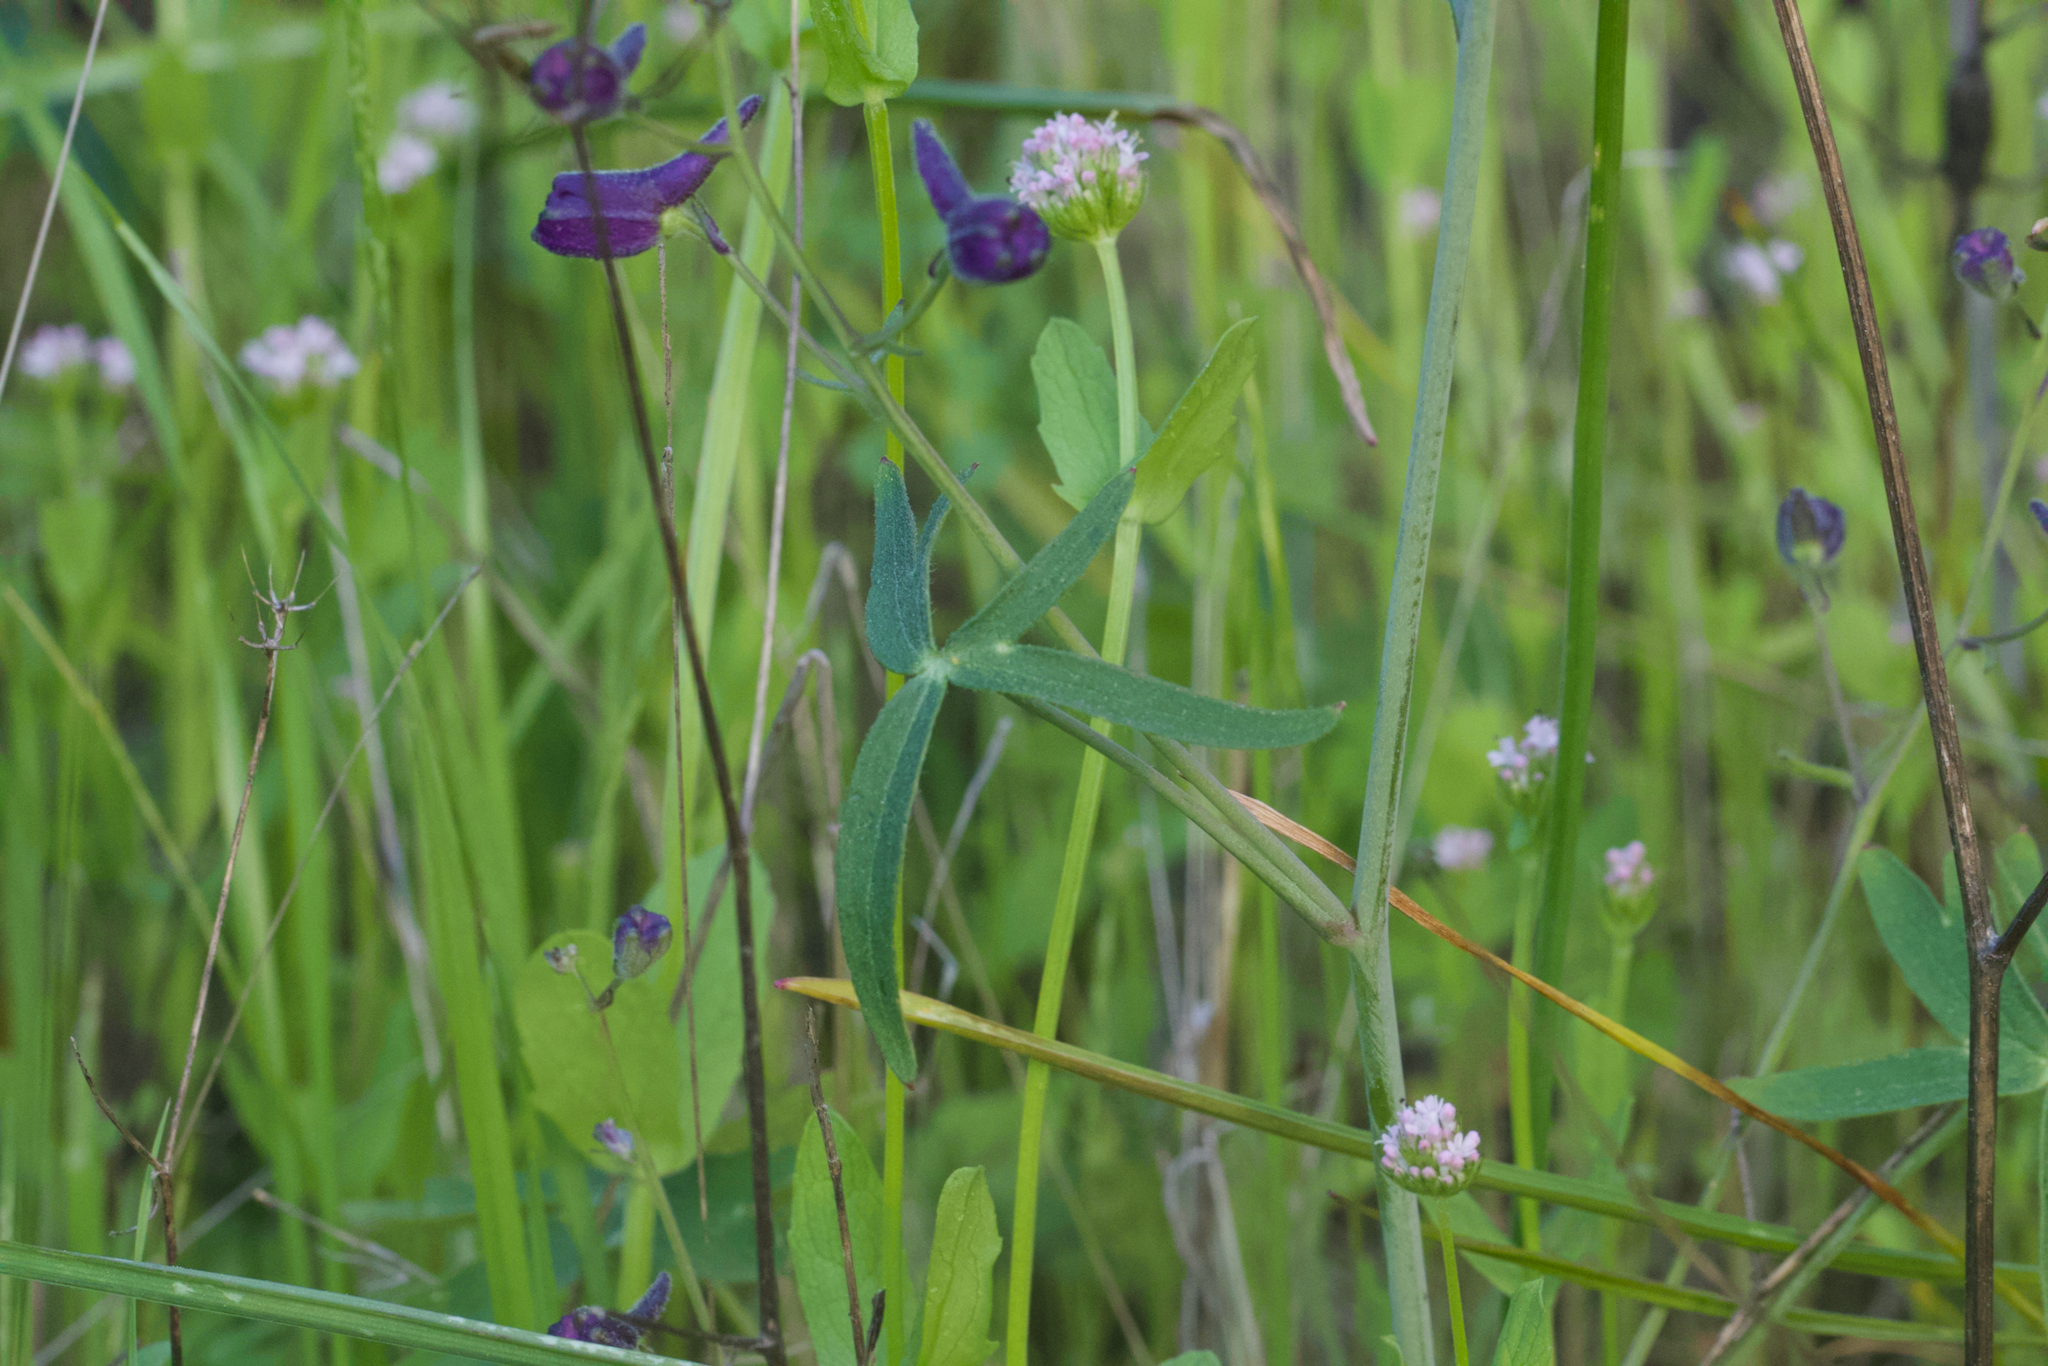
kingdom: Plantae
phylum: Tracheophyta
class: Magnoliopsida
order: Ranunculales
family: Ranunculaceae
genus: Delphinium
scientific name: Delphinium patens
